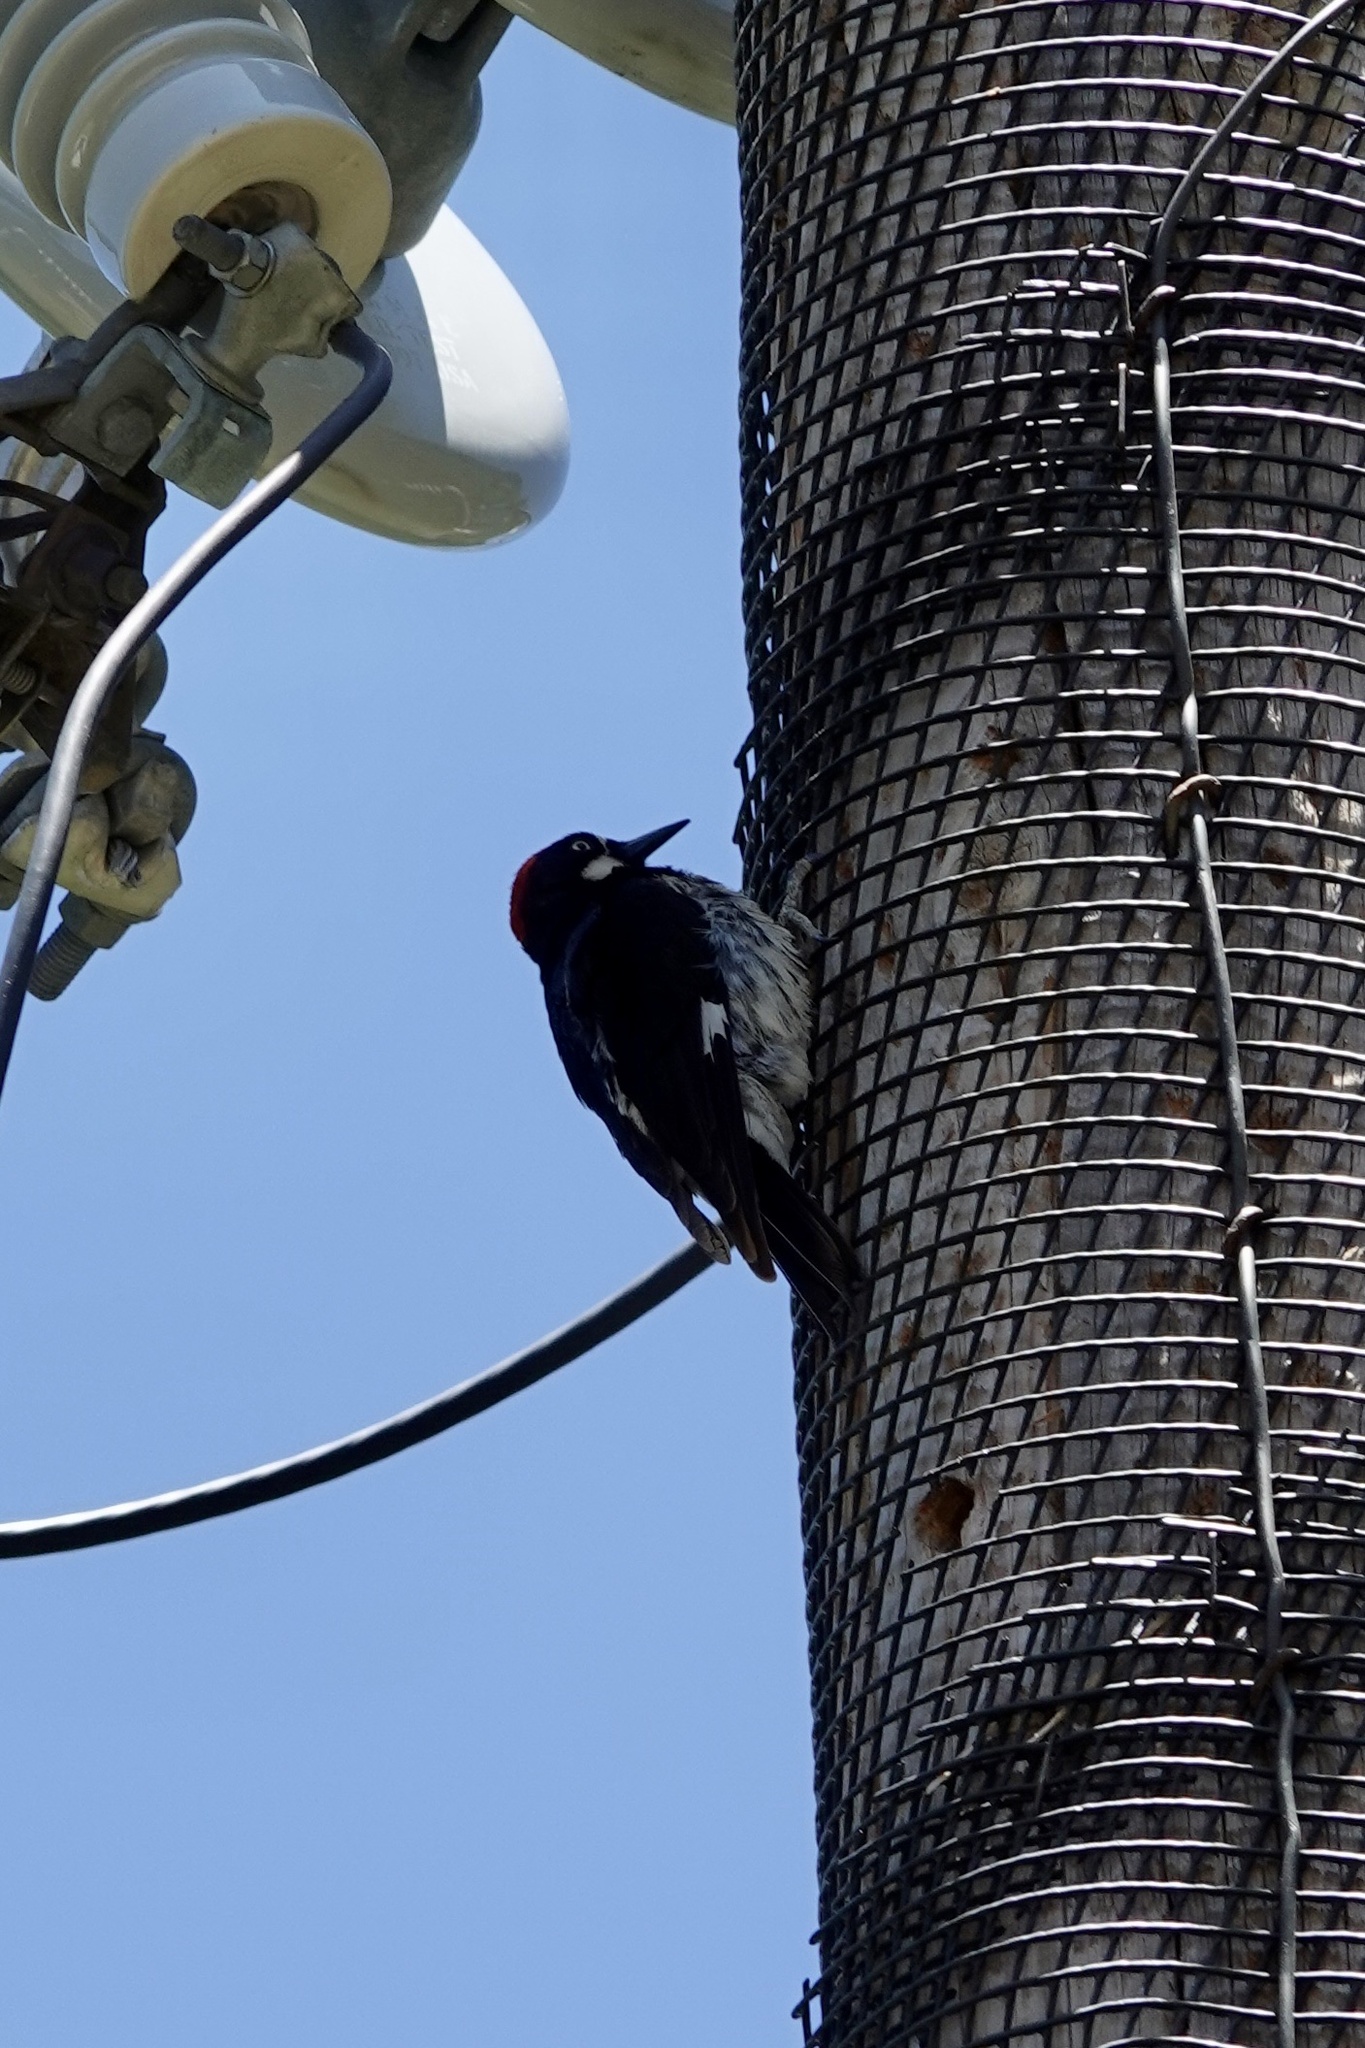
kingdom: Animalia
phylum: Chordata
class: Aves
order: Piciformes
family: Picidae
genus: Melanerpes
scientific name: Melanerpes formicivorus
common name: Acorn woodpecker
